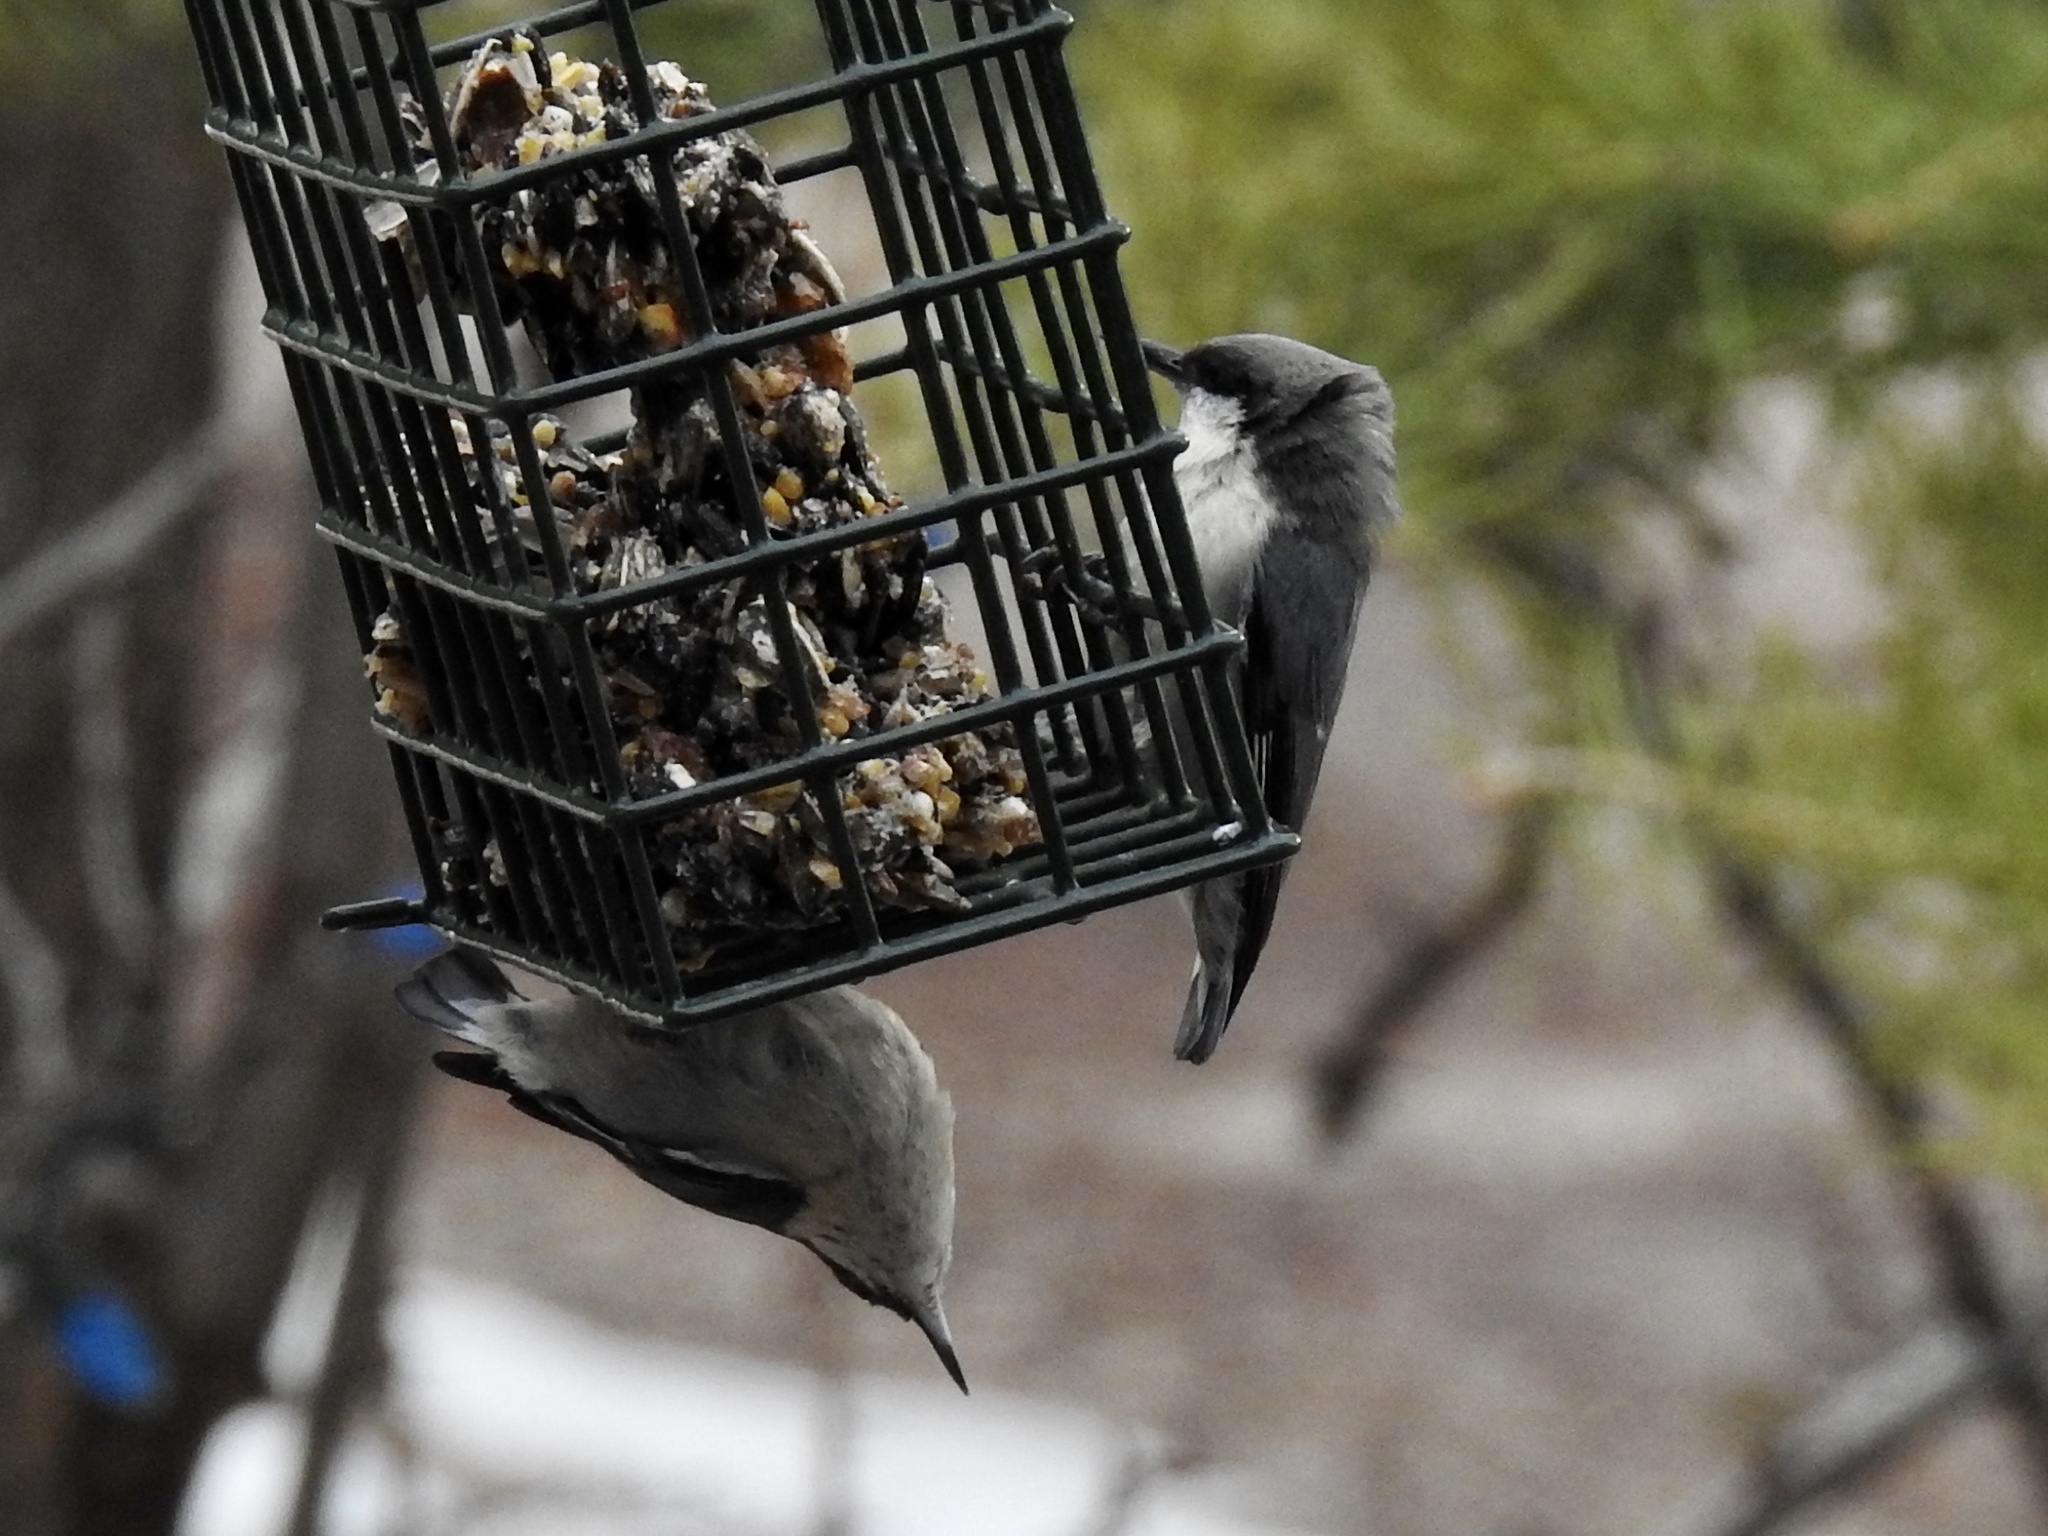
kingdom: Animalia
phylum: Chordata
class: Aves
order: Passeriformes
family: Sittidae
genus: Sitta
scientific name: Sitta pygmaea
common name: Pygmy nuthatch
